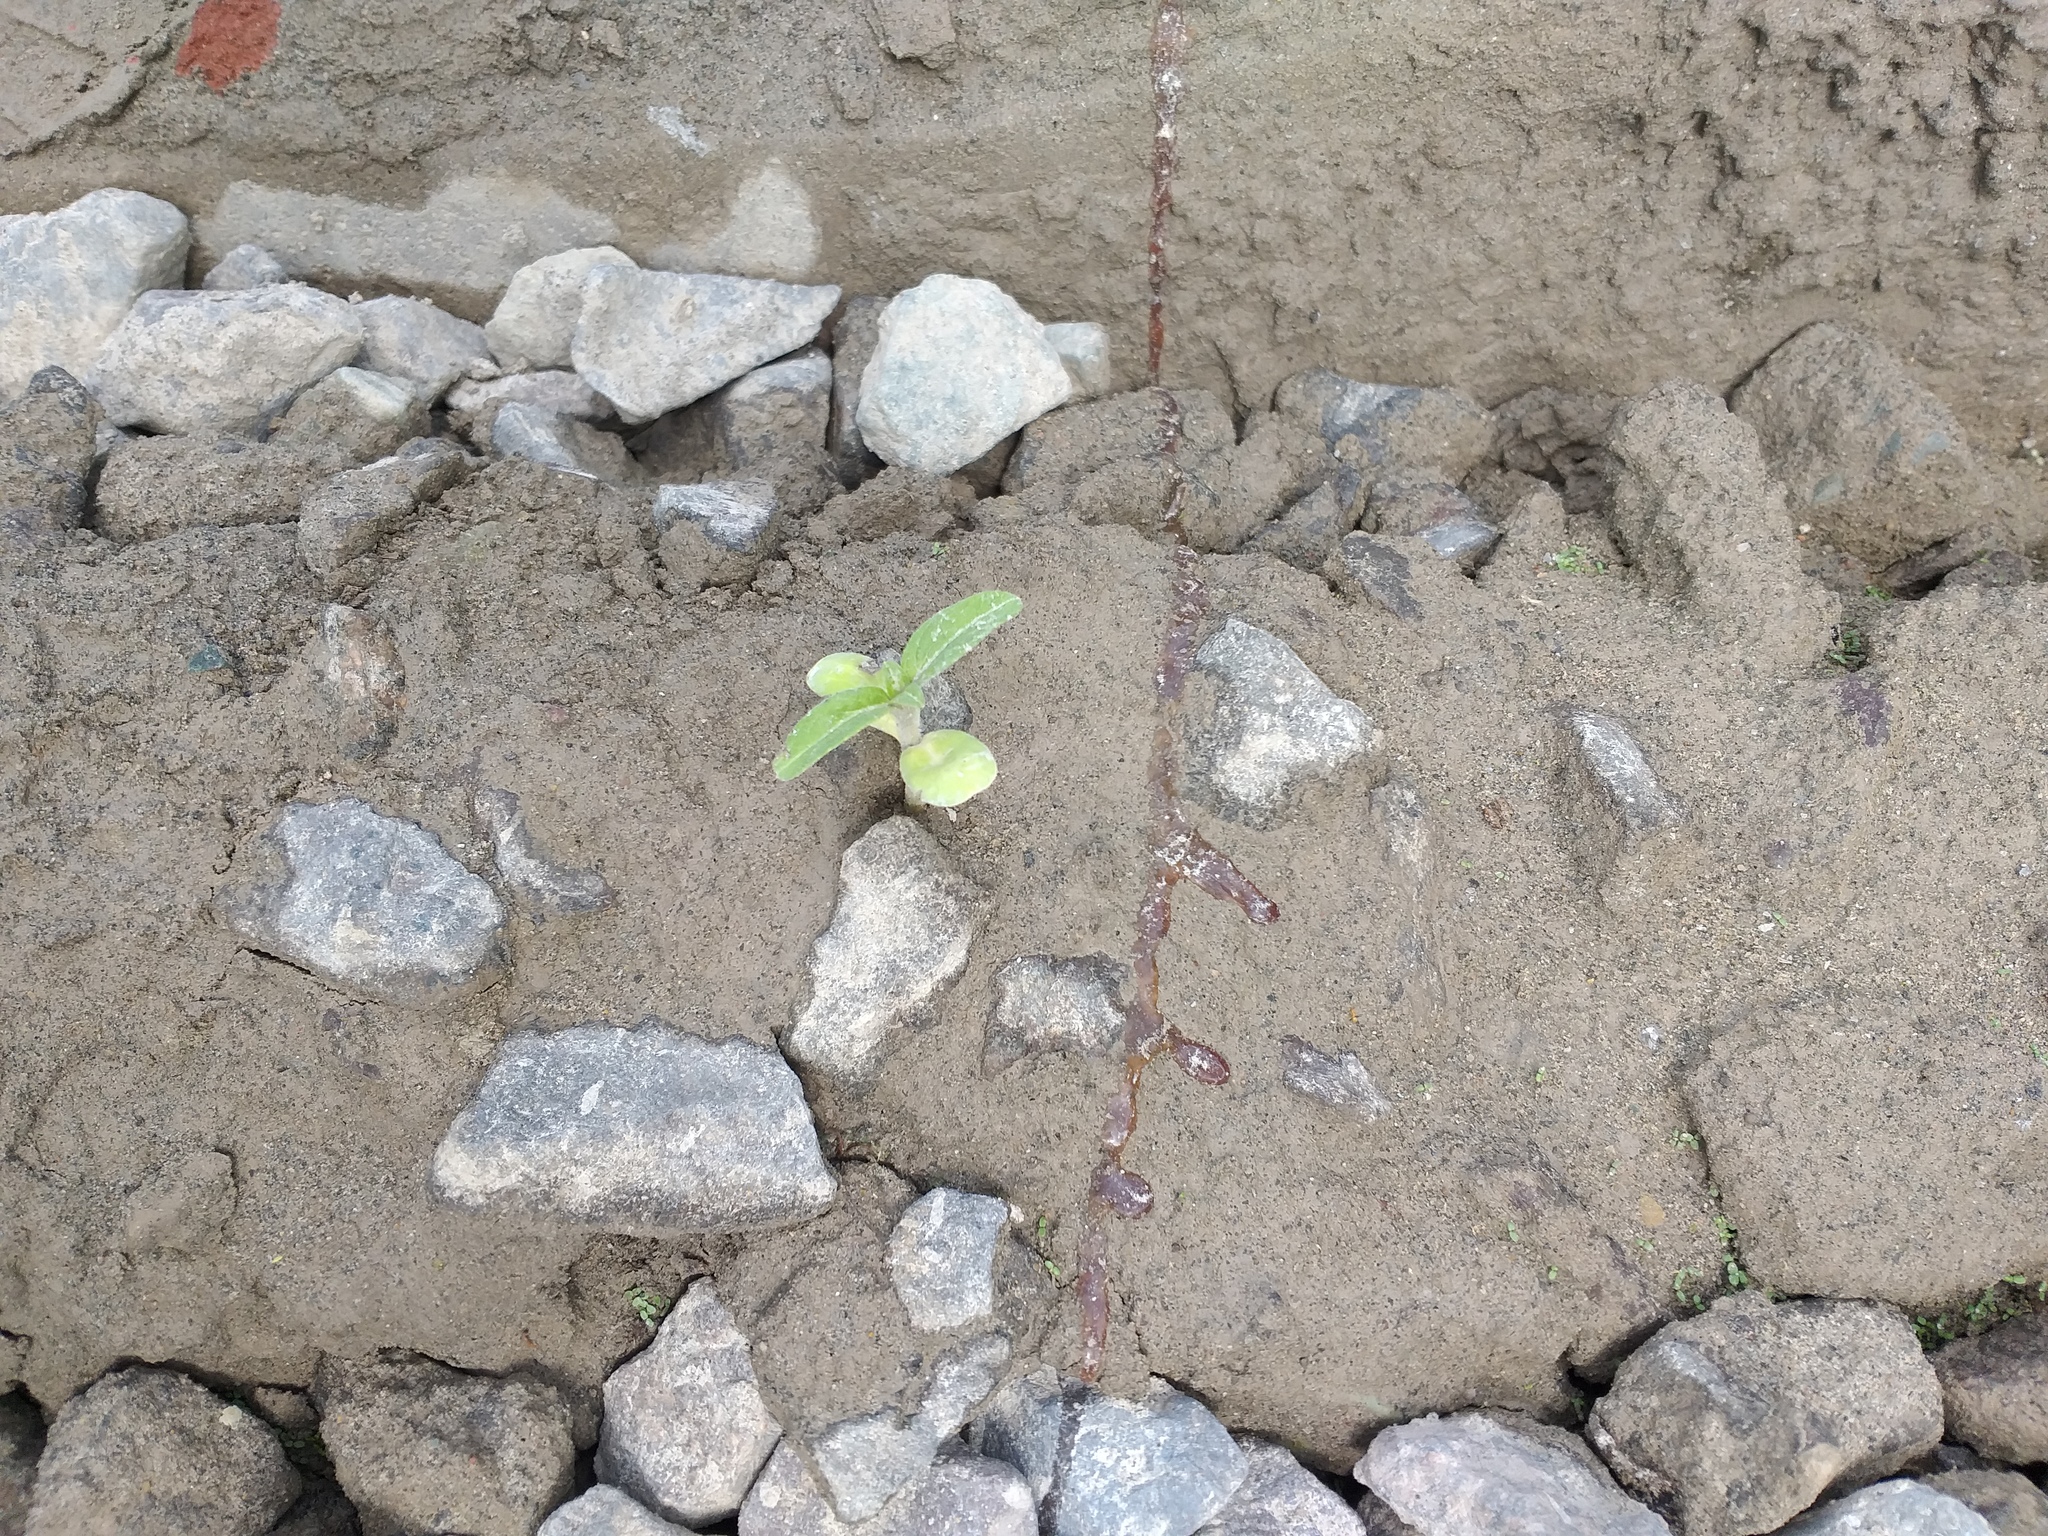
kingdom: Plantae
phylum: Tracheophyta
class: Magnoliopsida
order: Asterales
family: Asteraceae
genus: Helianthus
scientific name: Helianthus annuus
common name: Sunflower
